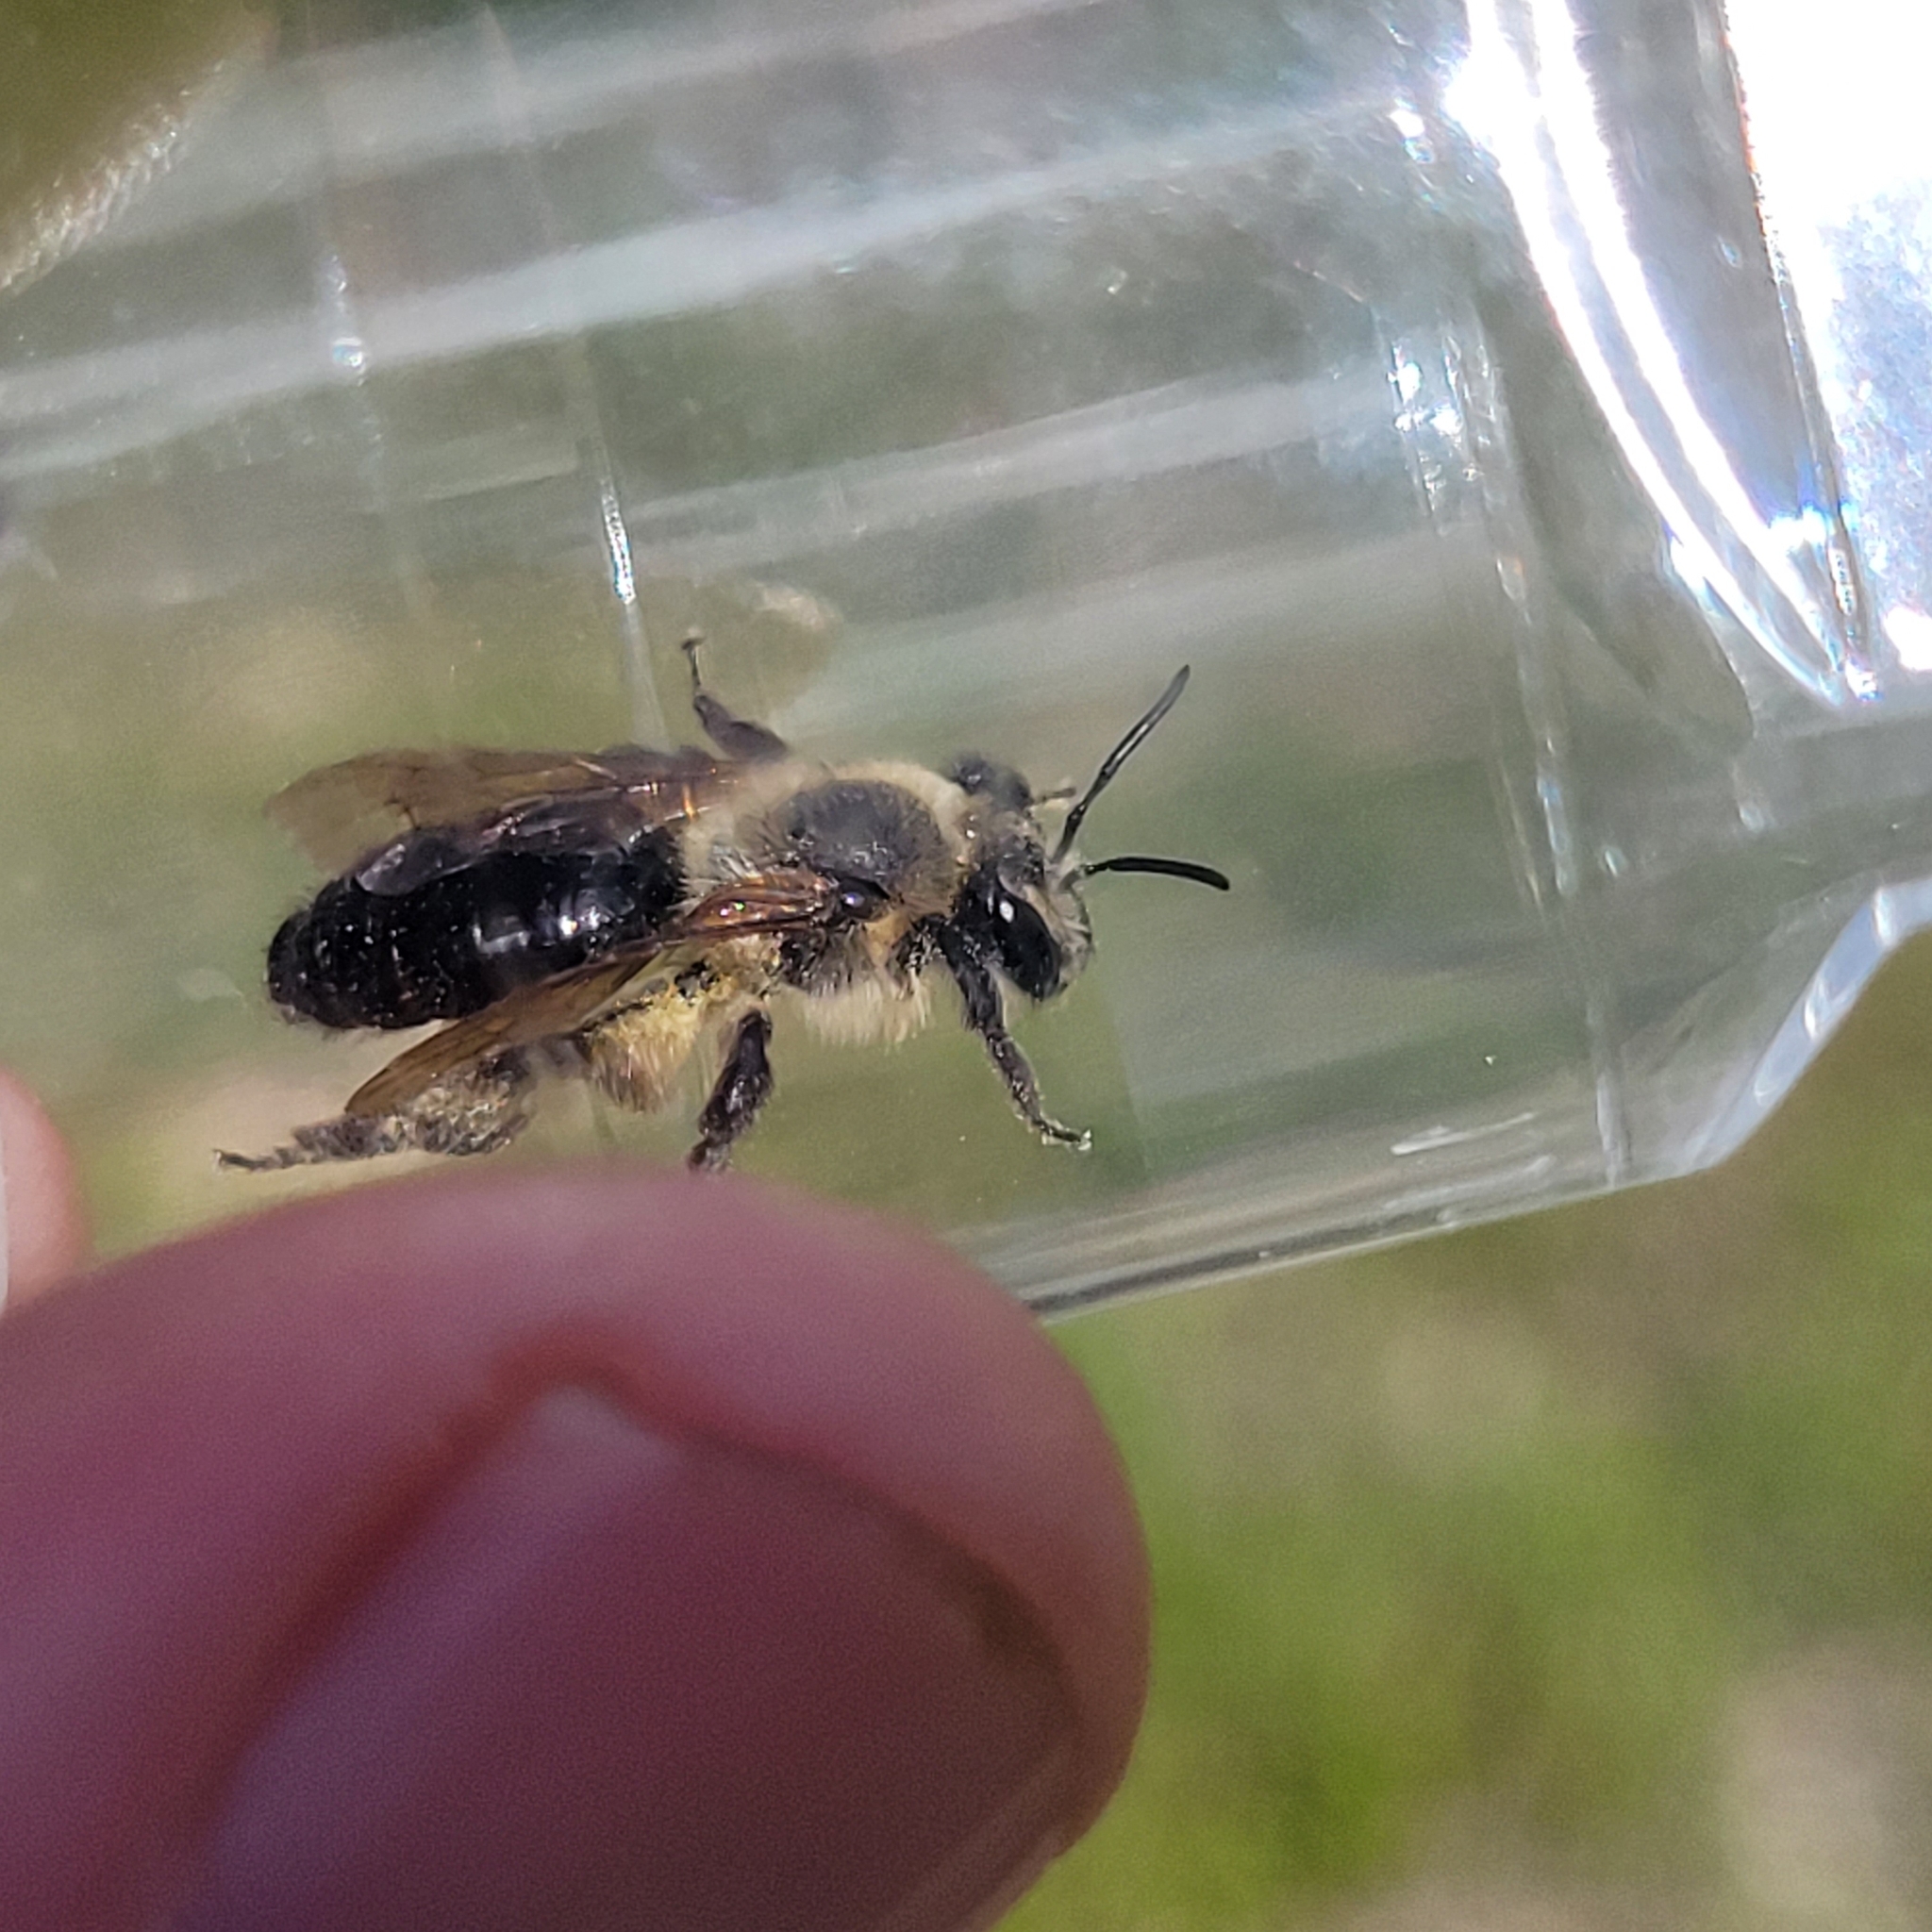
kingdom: Animalia
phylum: Arthropoda
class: Insecta
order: Hymenoptera
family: Andrenidae
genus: Andrena
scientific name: Andrena vicina
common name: Neighborly mining bee
